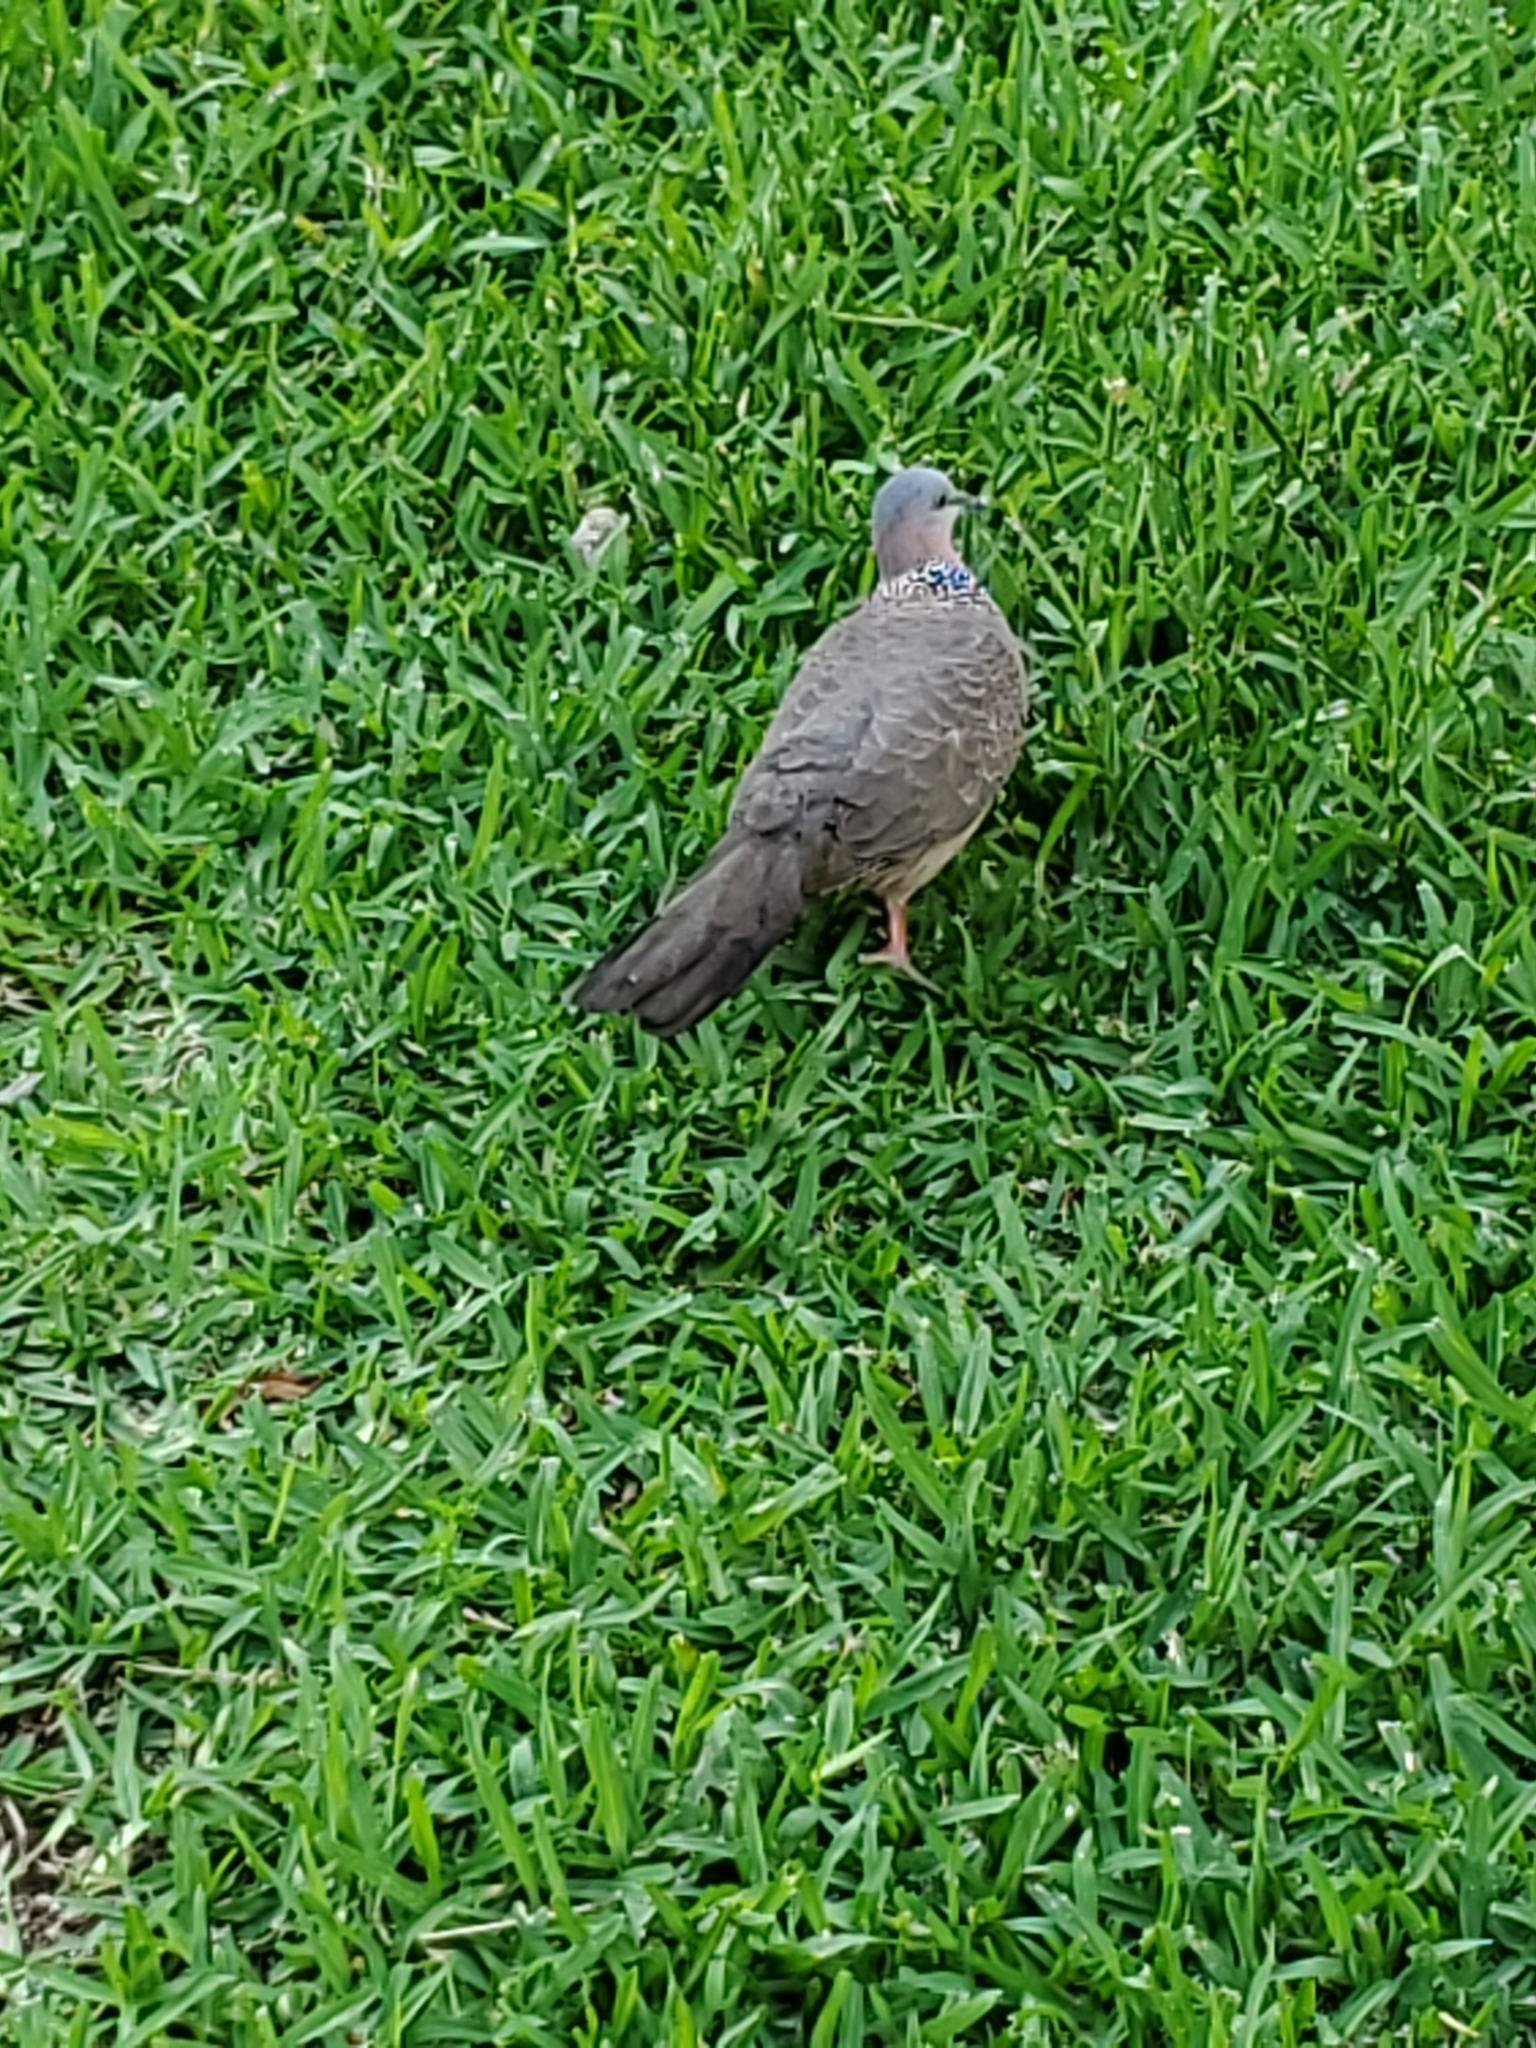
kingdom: Animalia
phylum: Chordata
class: Aves
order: Columbiformes
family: Columbidae
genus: Spilopelia
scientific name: Spilopelia chinensis
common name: Spotted dove
